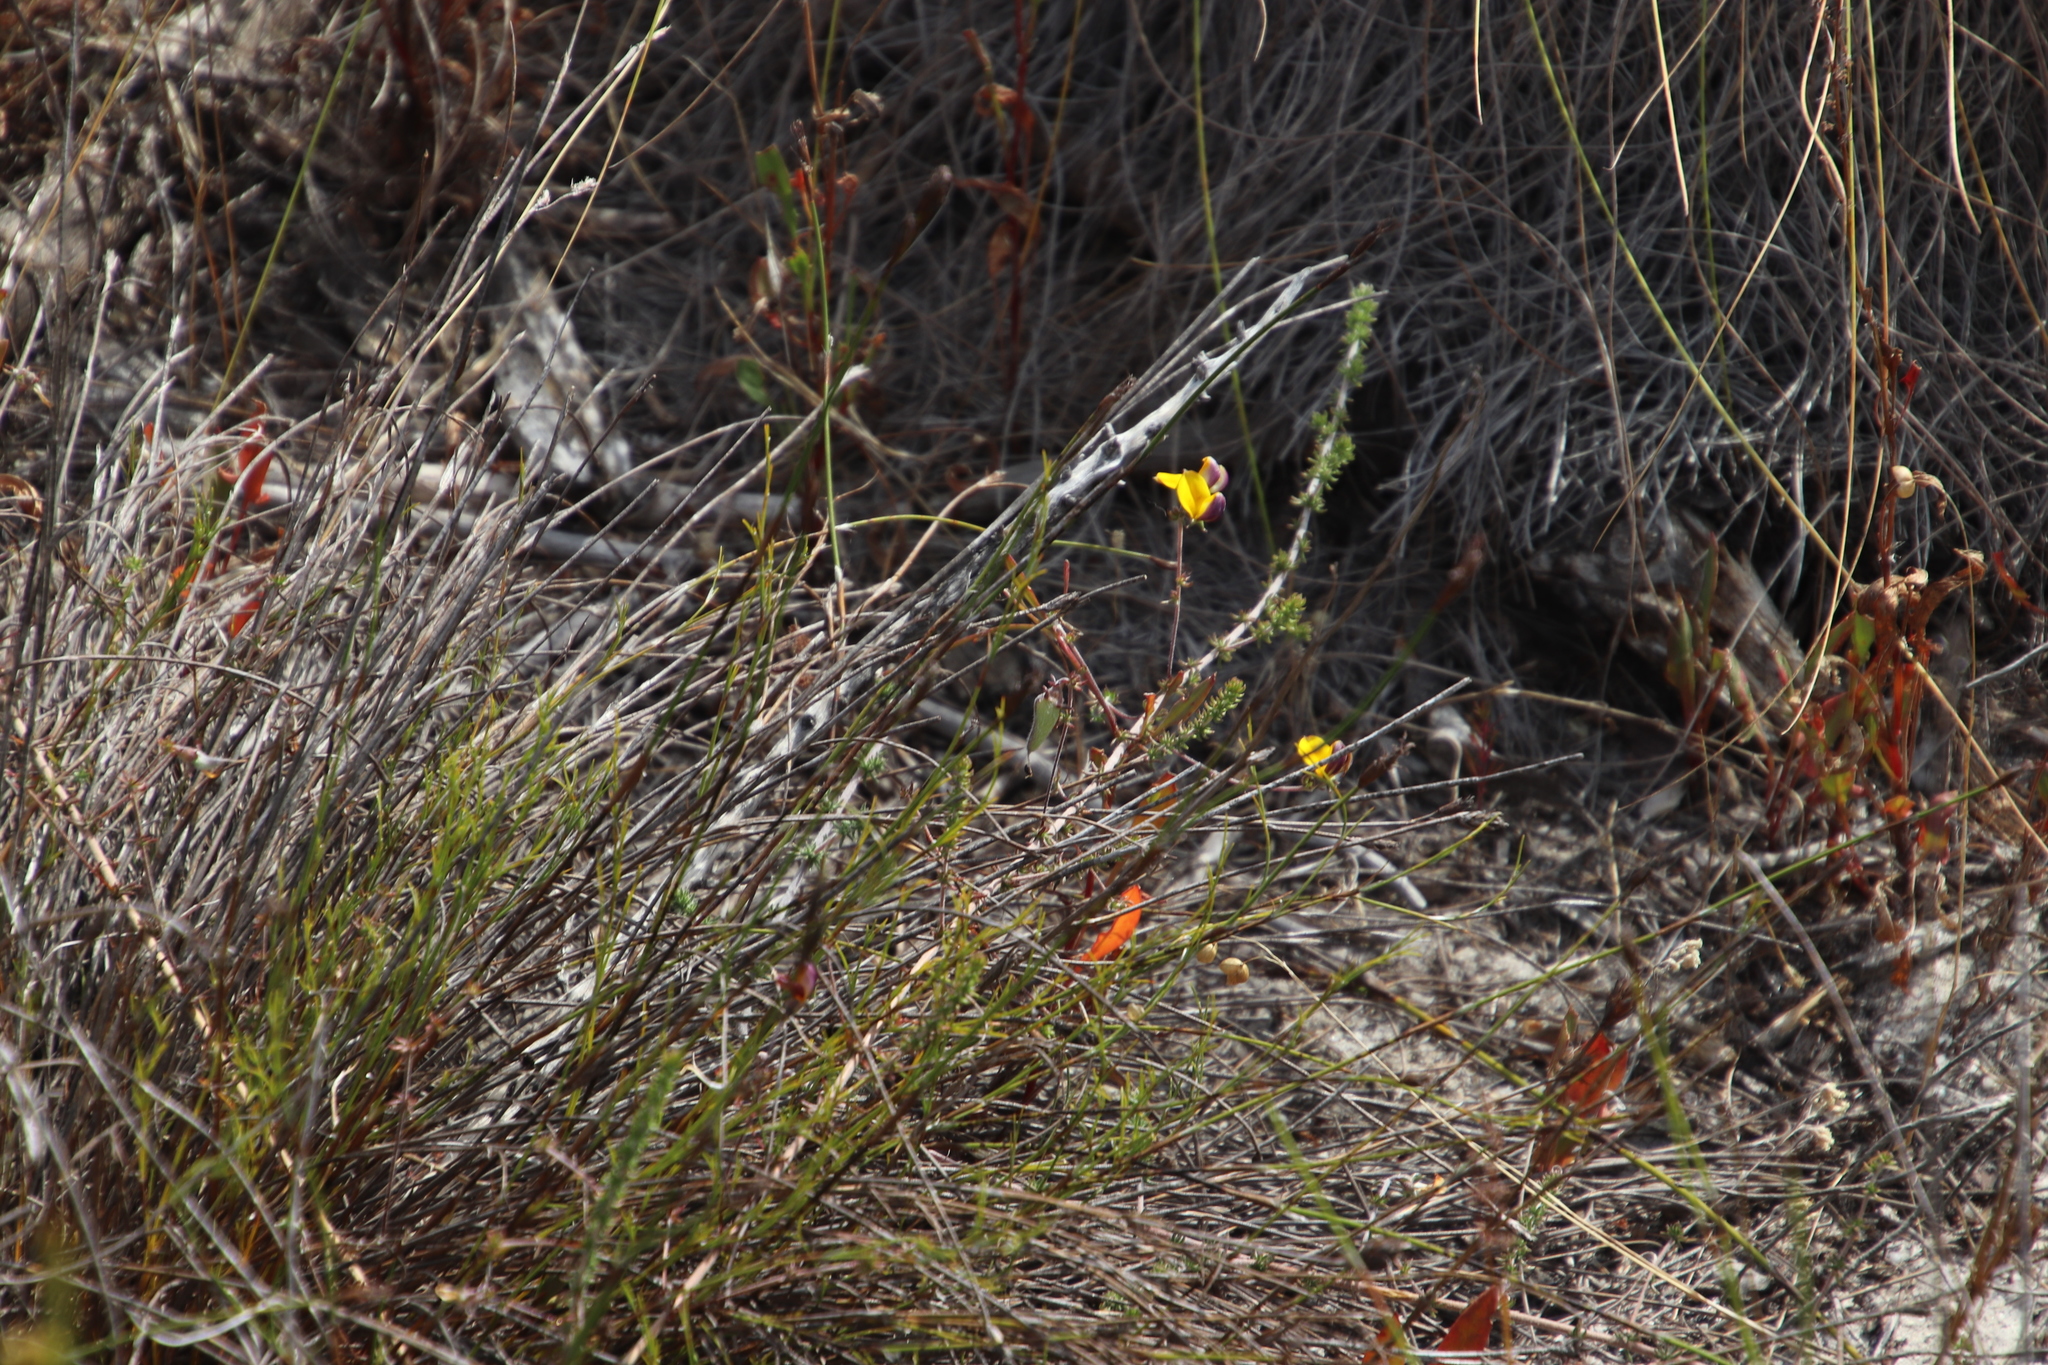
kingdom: Plantae
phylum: Tracheophyta
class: Magnoliopsida
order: Fabales
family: Fabaceae
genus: Aspalathus
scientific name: Aspalathus retroflexa
